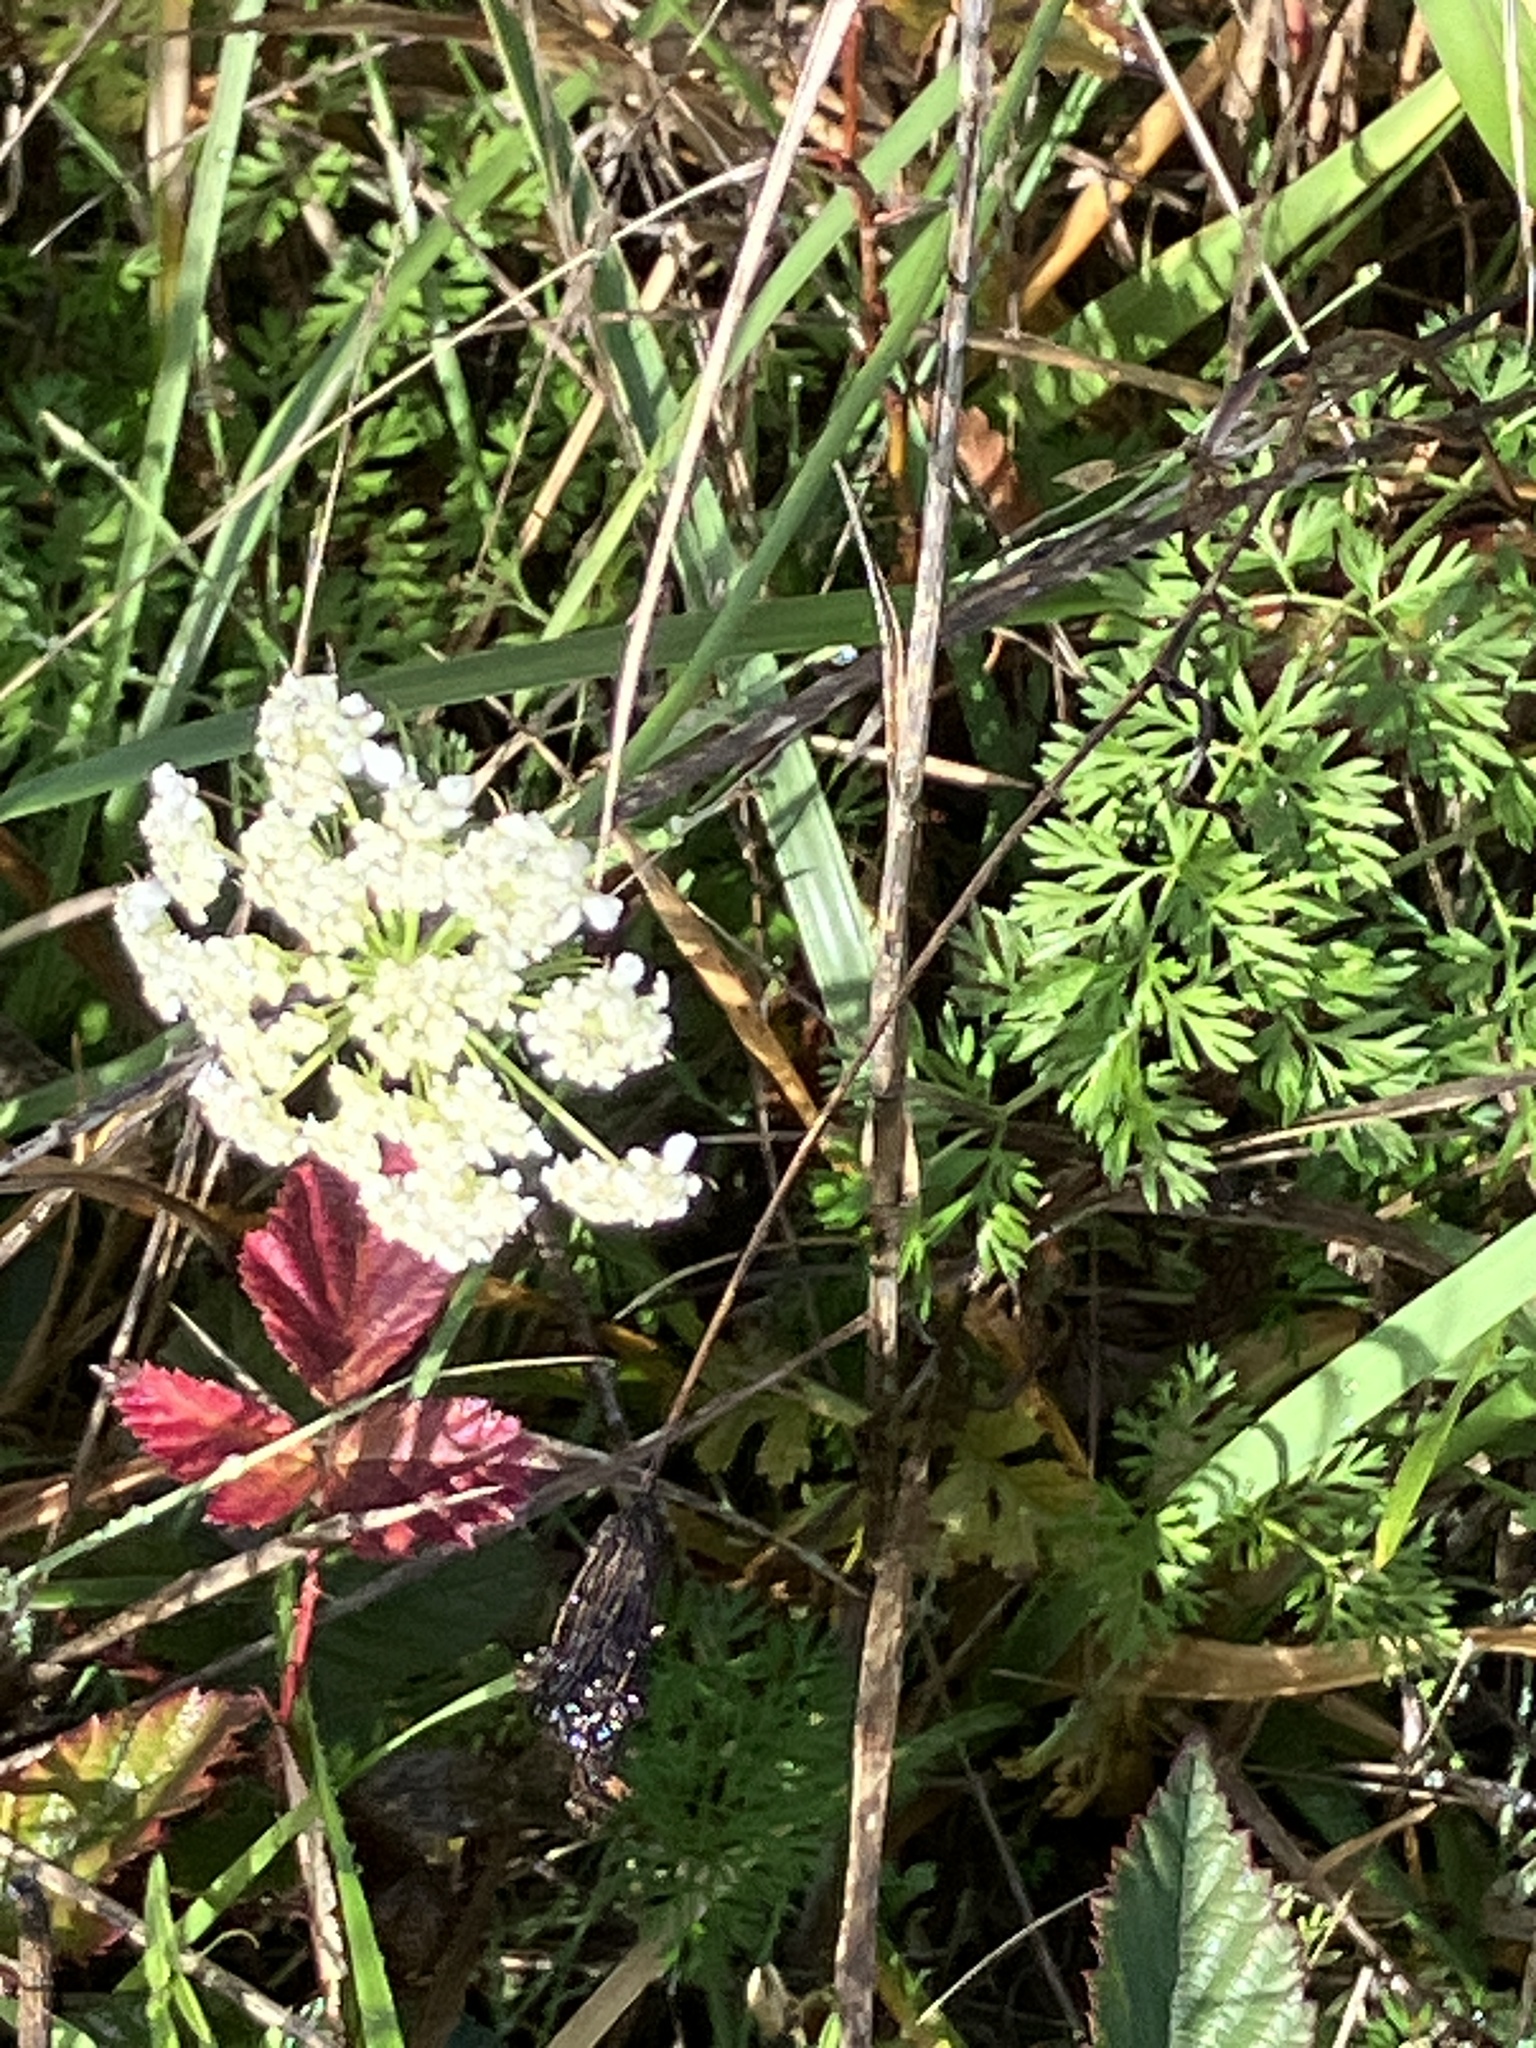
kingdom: Plantae
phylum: Tracheophyta
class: Magnoliopsida
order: Apiales
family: Apiaceae
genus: Daucus
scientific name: Daucus carota
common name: Wild carrot
